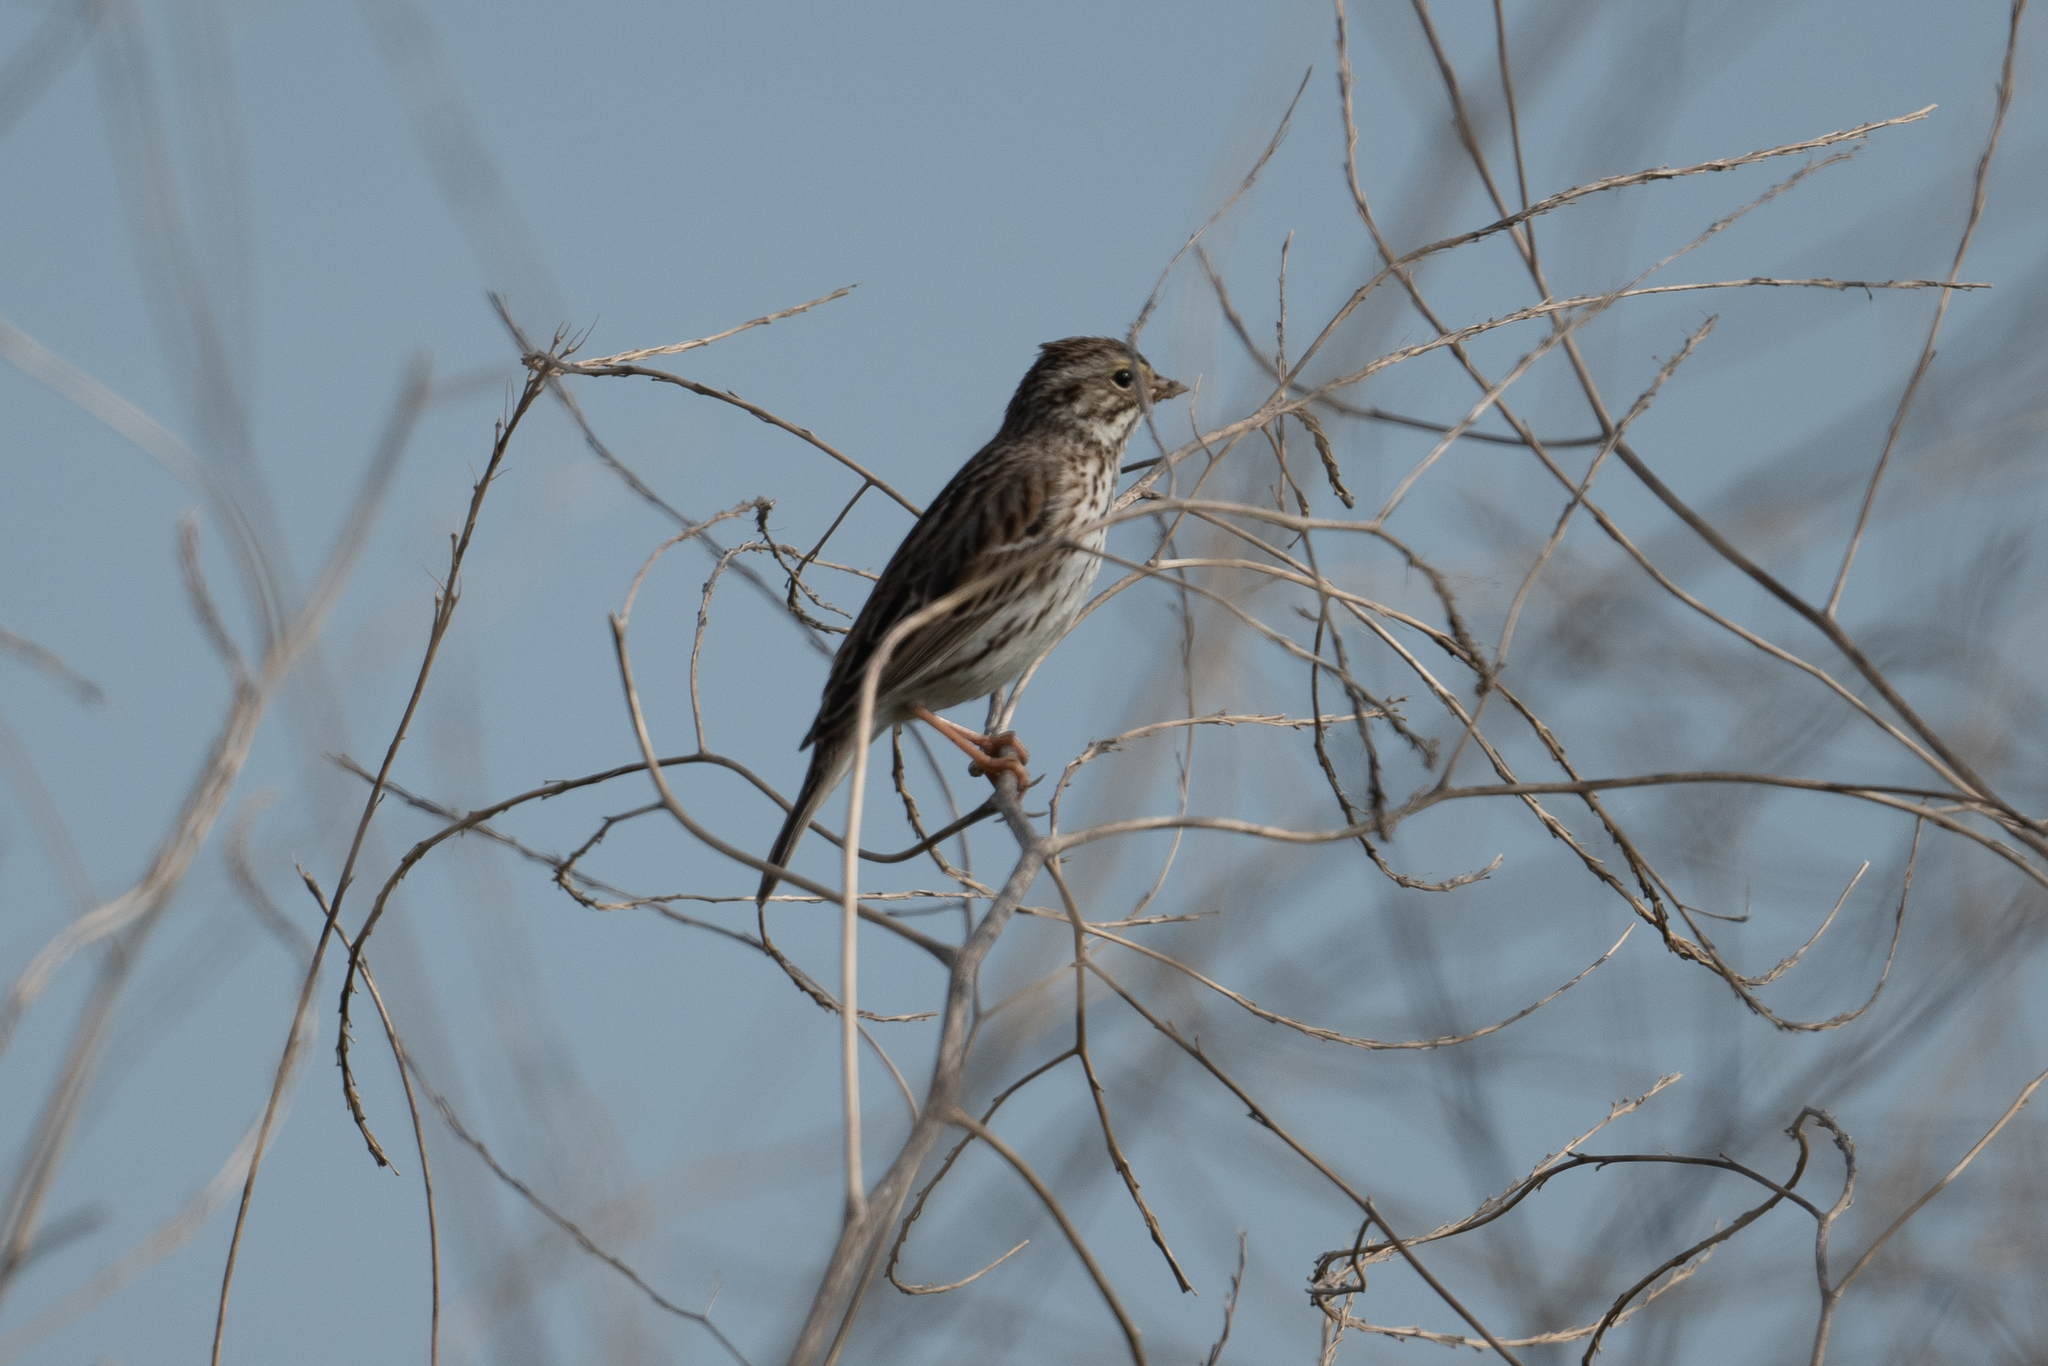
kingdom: Animalia
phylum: Chordata
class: Aves
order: Passeriformes
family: Passerellidae
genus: Passerculus
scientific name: Passerculus sandwichensis
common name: Savannah sparrow
